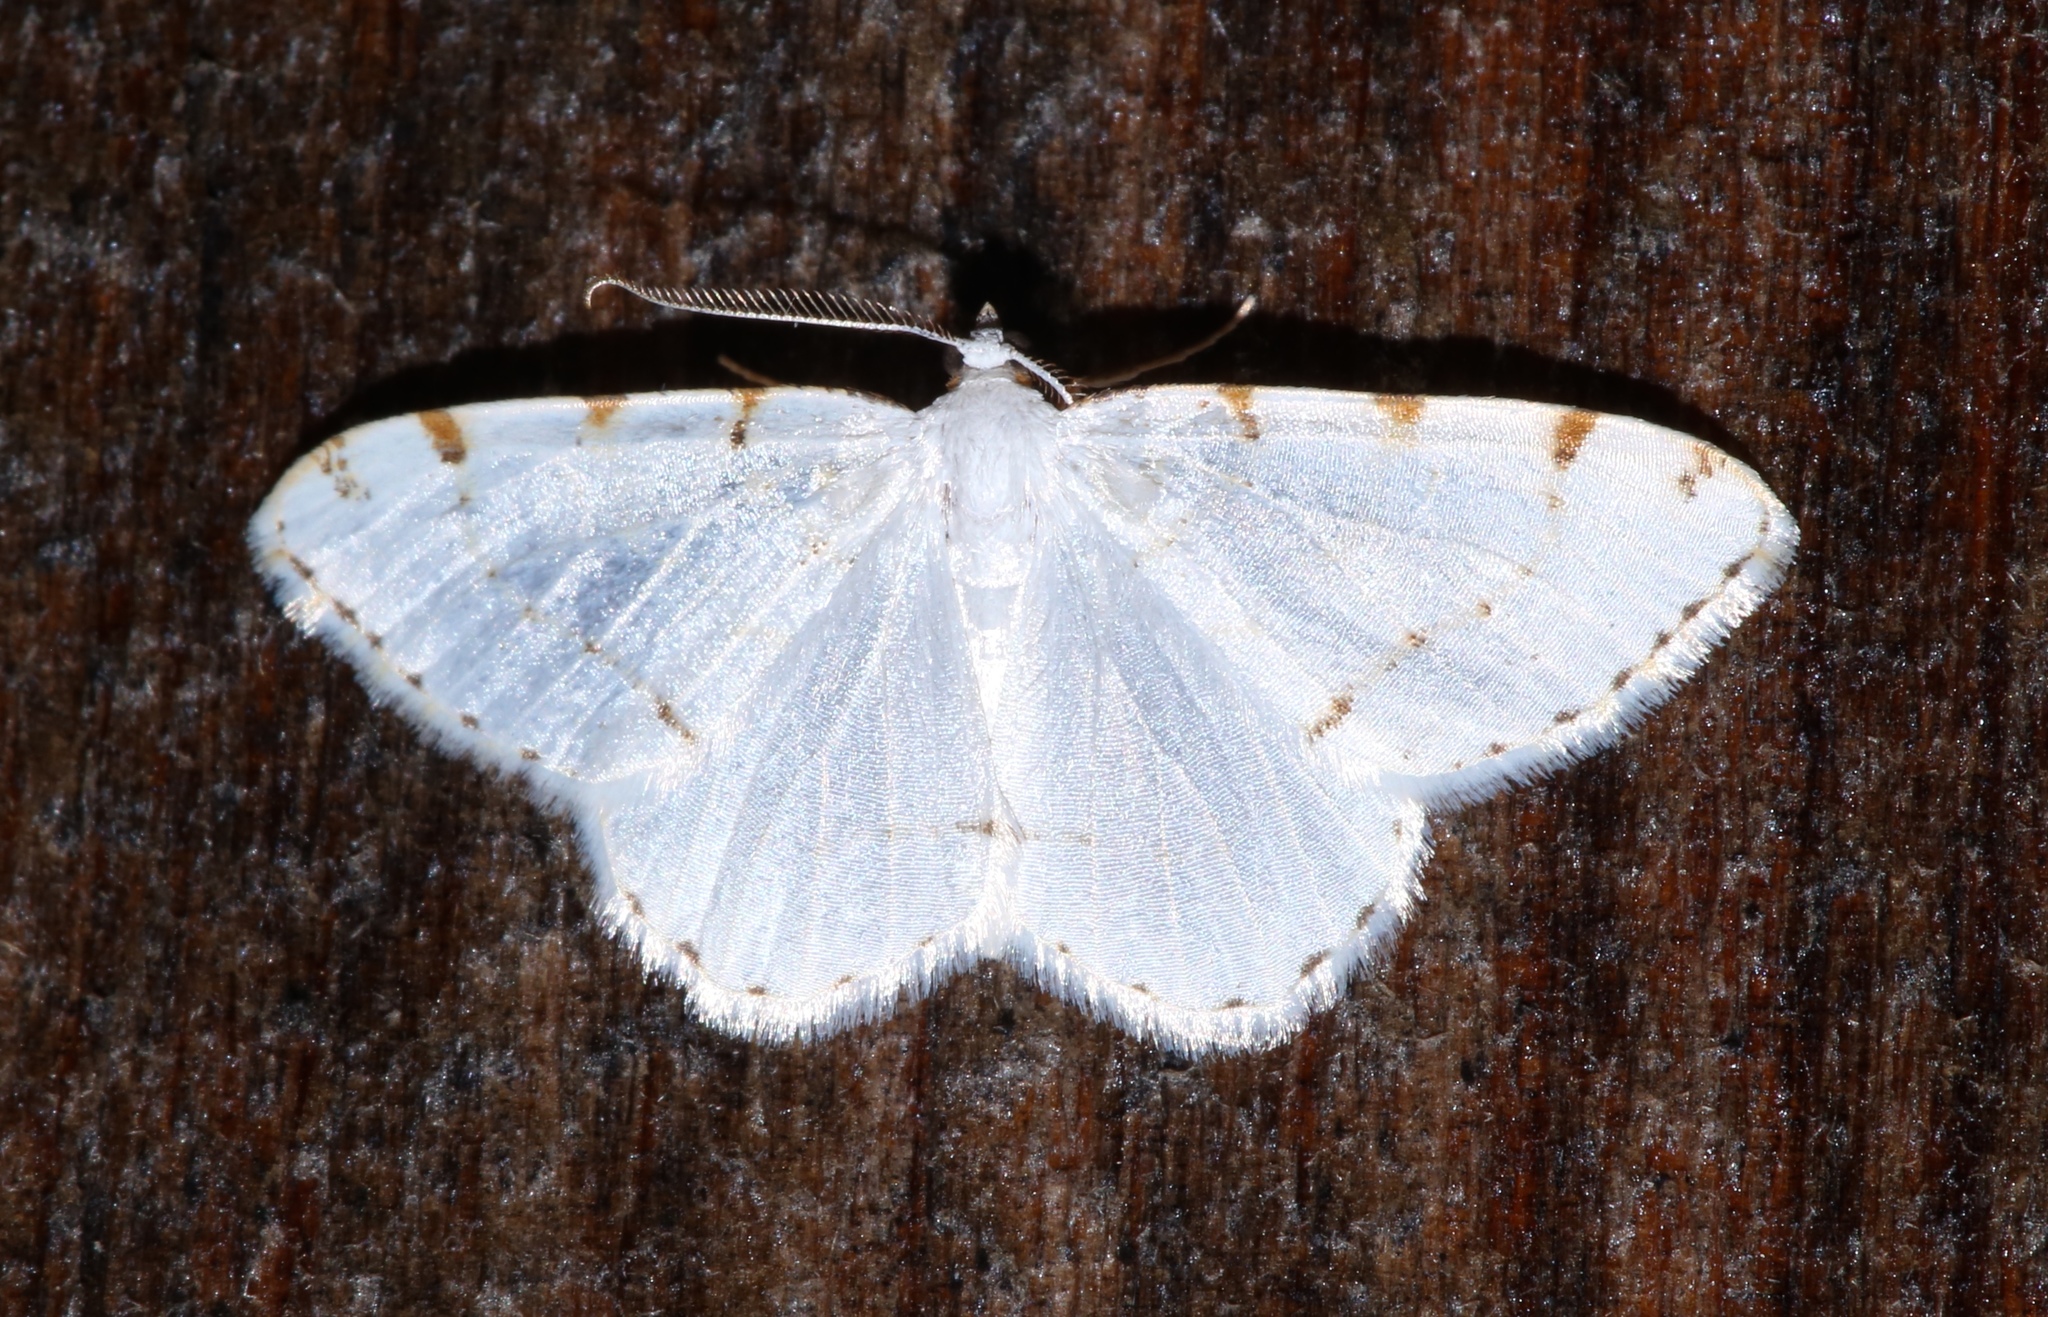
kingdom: Animalia
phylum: Arthropoda
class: Insecta
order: Lepidoptera
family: Geometridae
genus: Macaria
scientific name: Macaria pustularia
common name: Lesser maple spanworm moth
